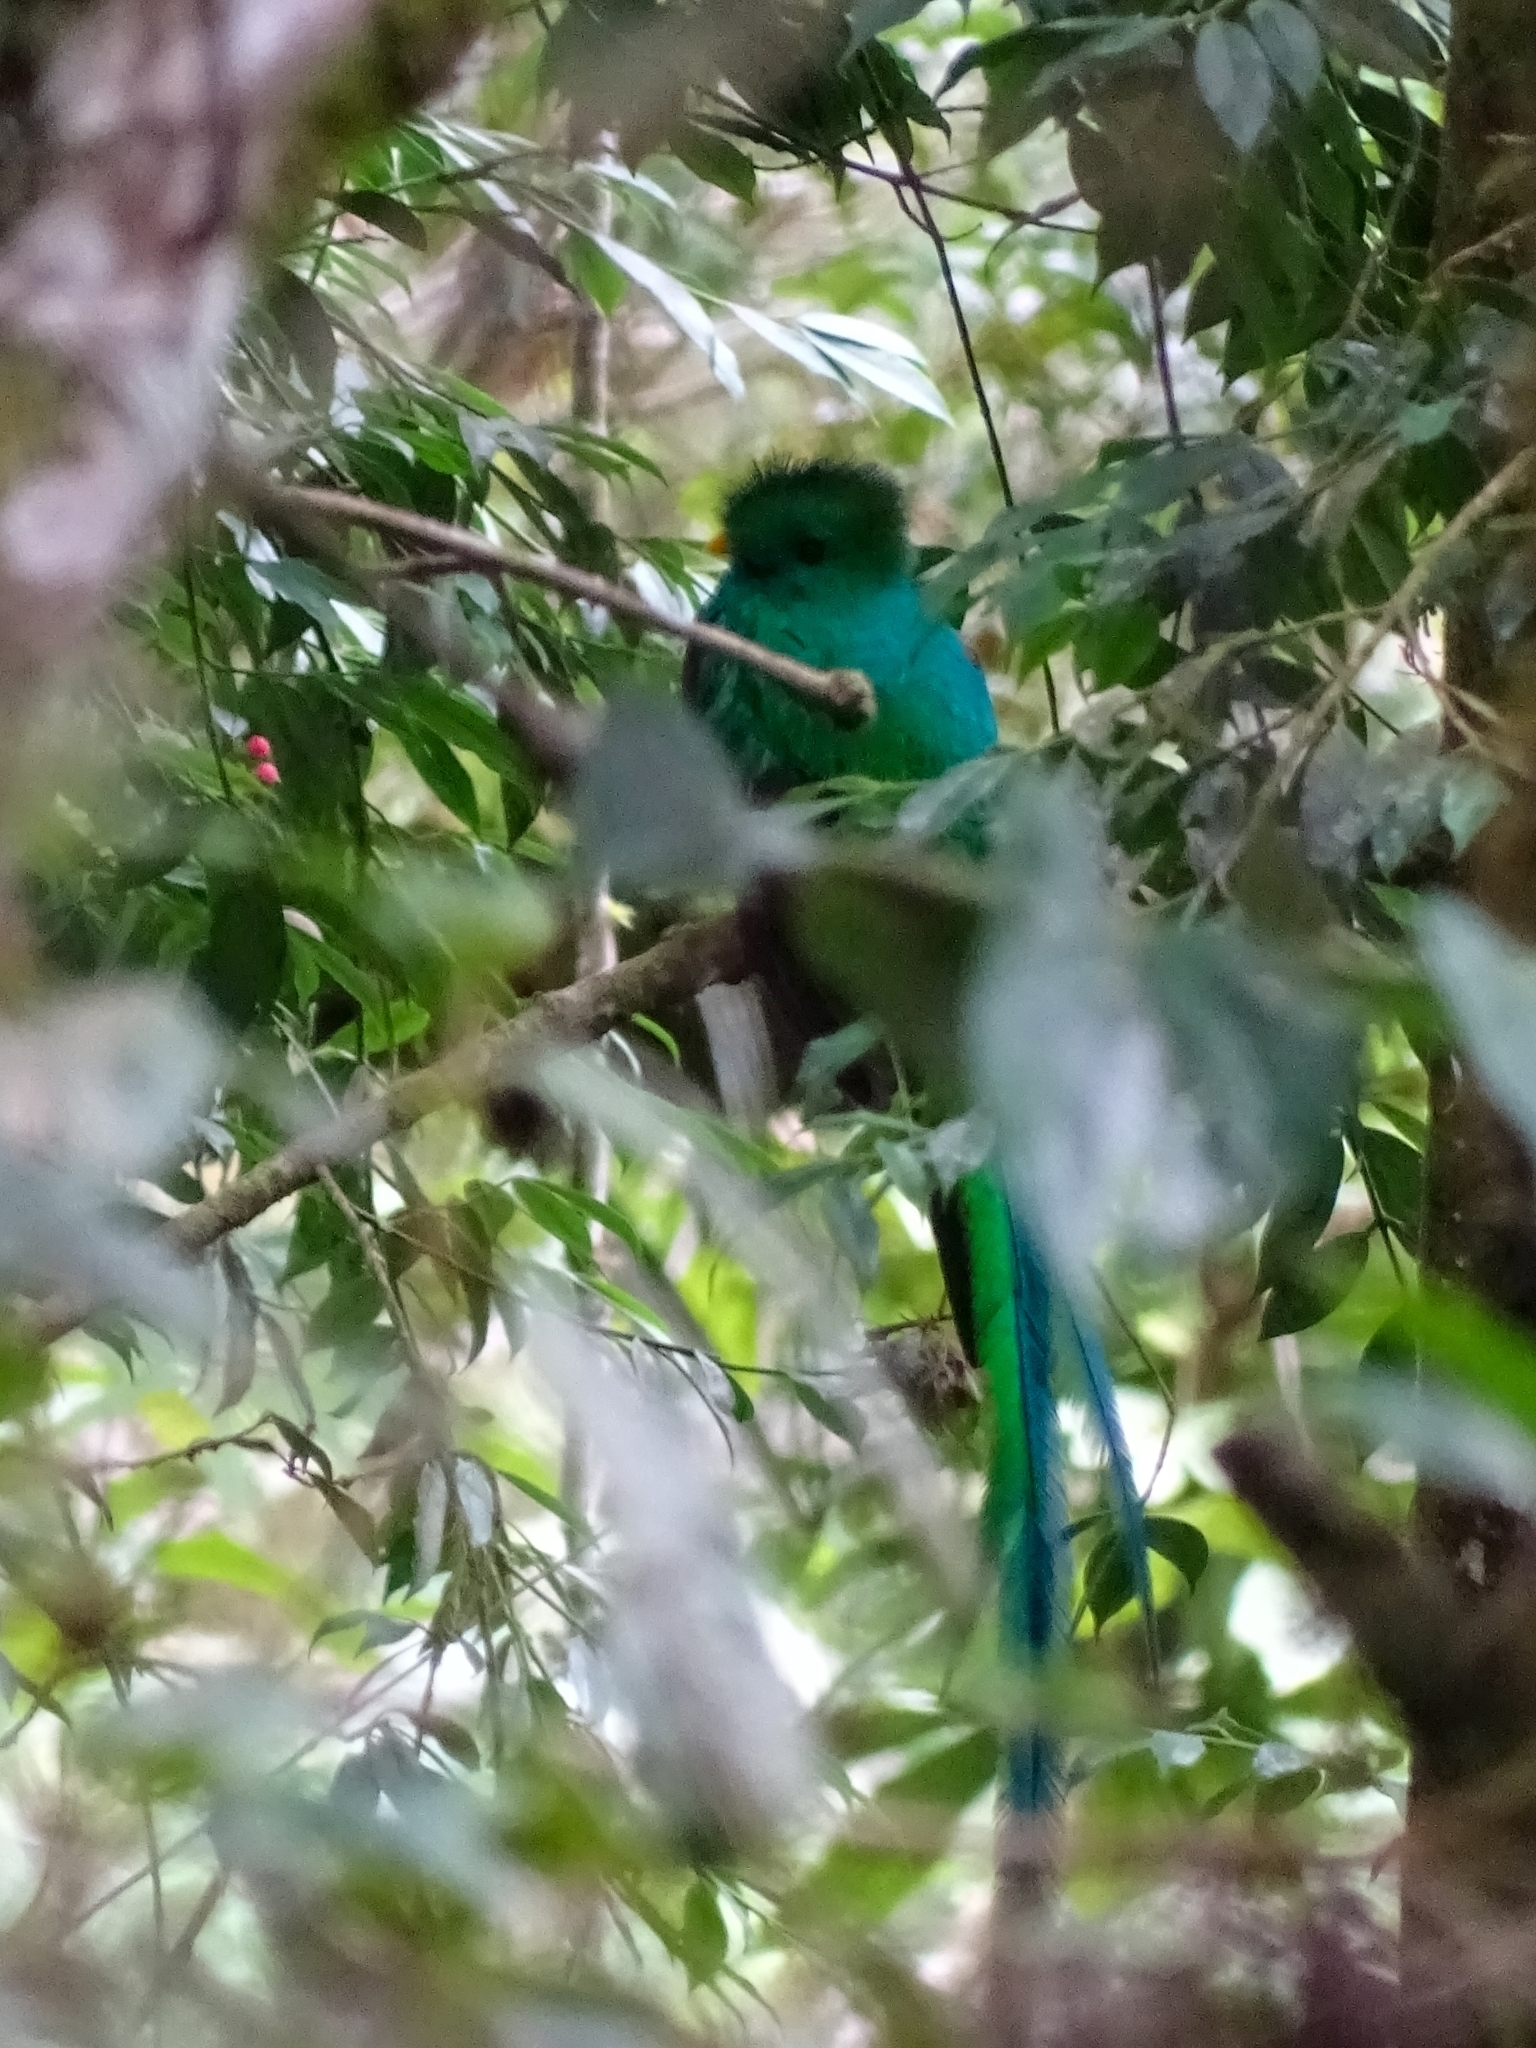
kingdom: Animalia
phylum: Chordata
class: Aves
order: Trogoniformes
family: Trogonidae
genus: Pharomachrus
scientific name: Pharomachrus mocinno
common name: Resplendent quetzal
